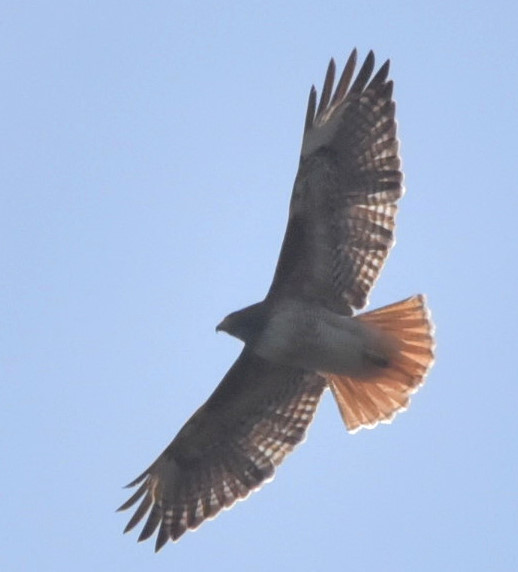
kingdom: Animalia
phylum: Chordata
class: Aves
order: Accipitriformes
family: Accipitridae
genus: Buteo
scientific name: Buteo jamaicensis
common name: Red-tailed hawk
